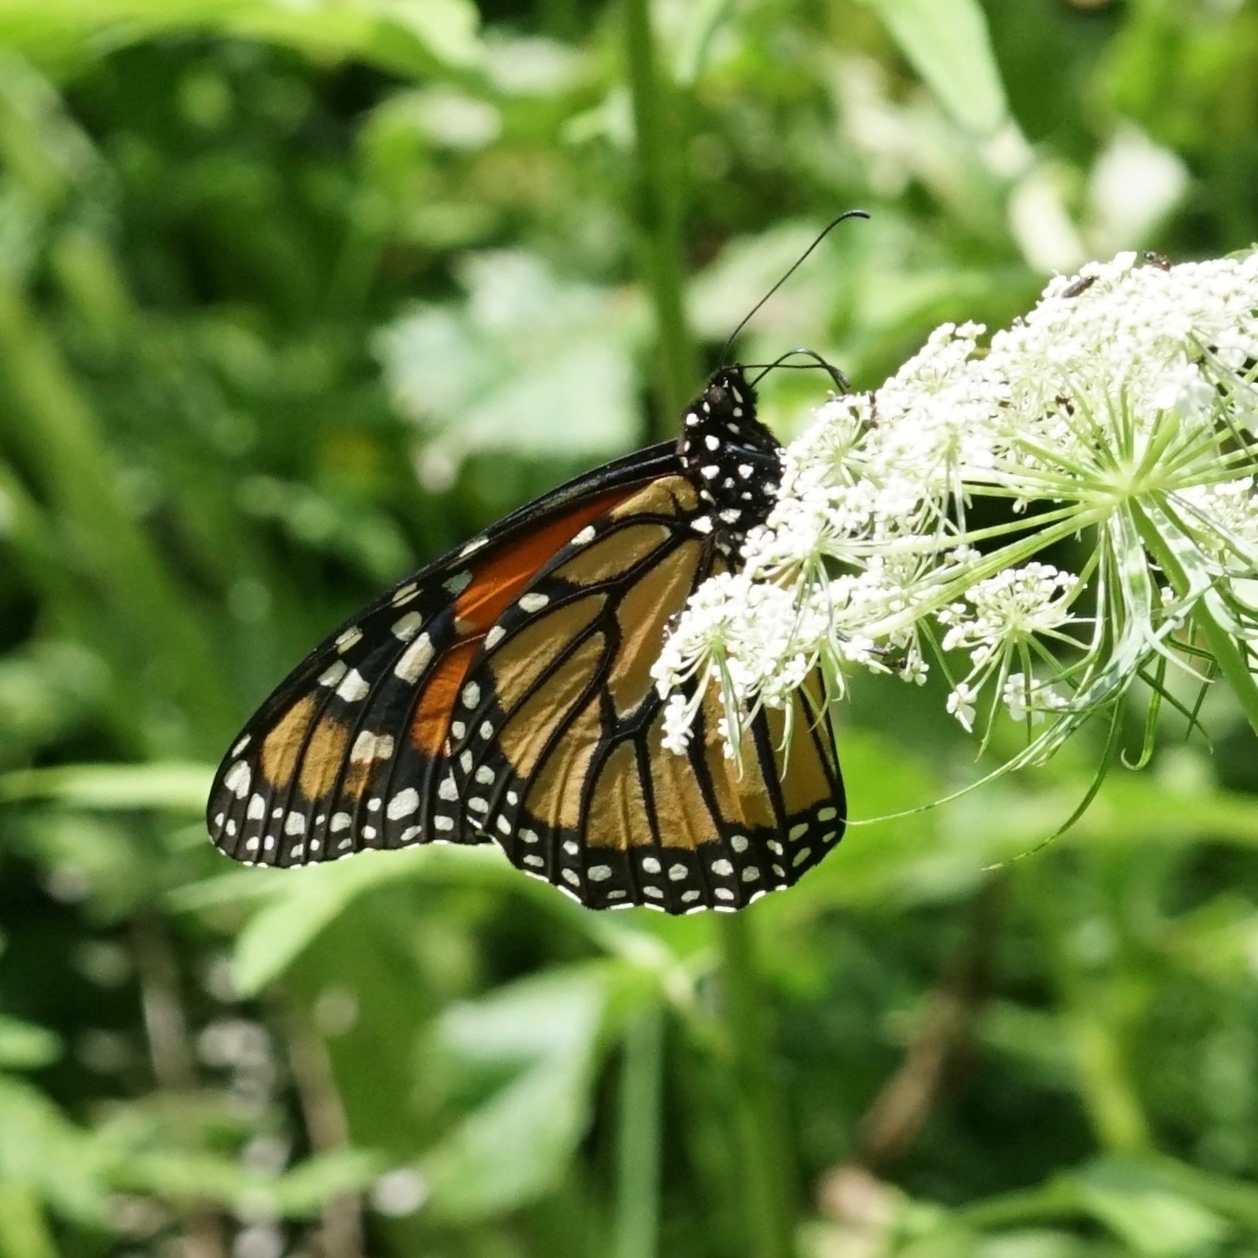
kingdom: Animalia
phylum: Arthropoda
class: Insecta
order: Lepidoptera
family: Nymphalidae
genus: Danaus
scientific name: Danaus plexippus
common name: Monarch
